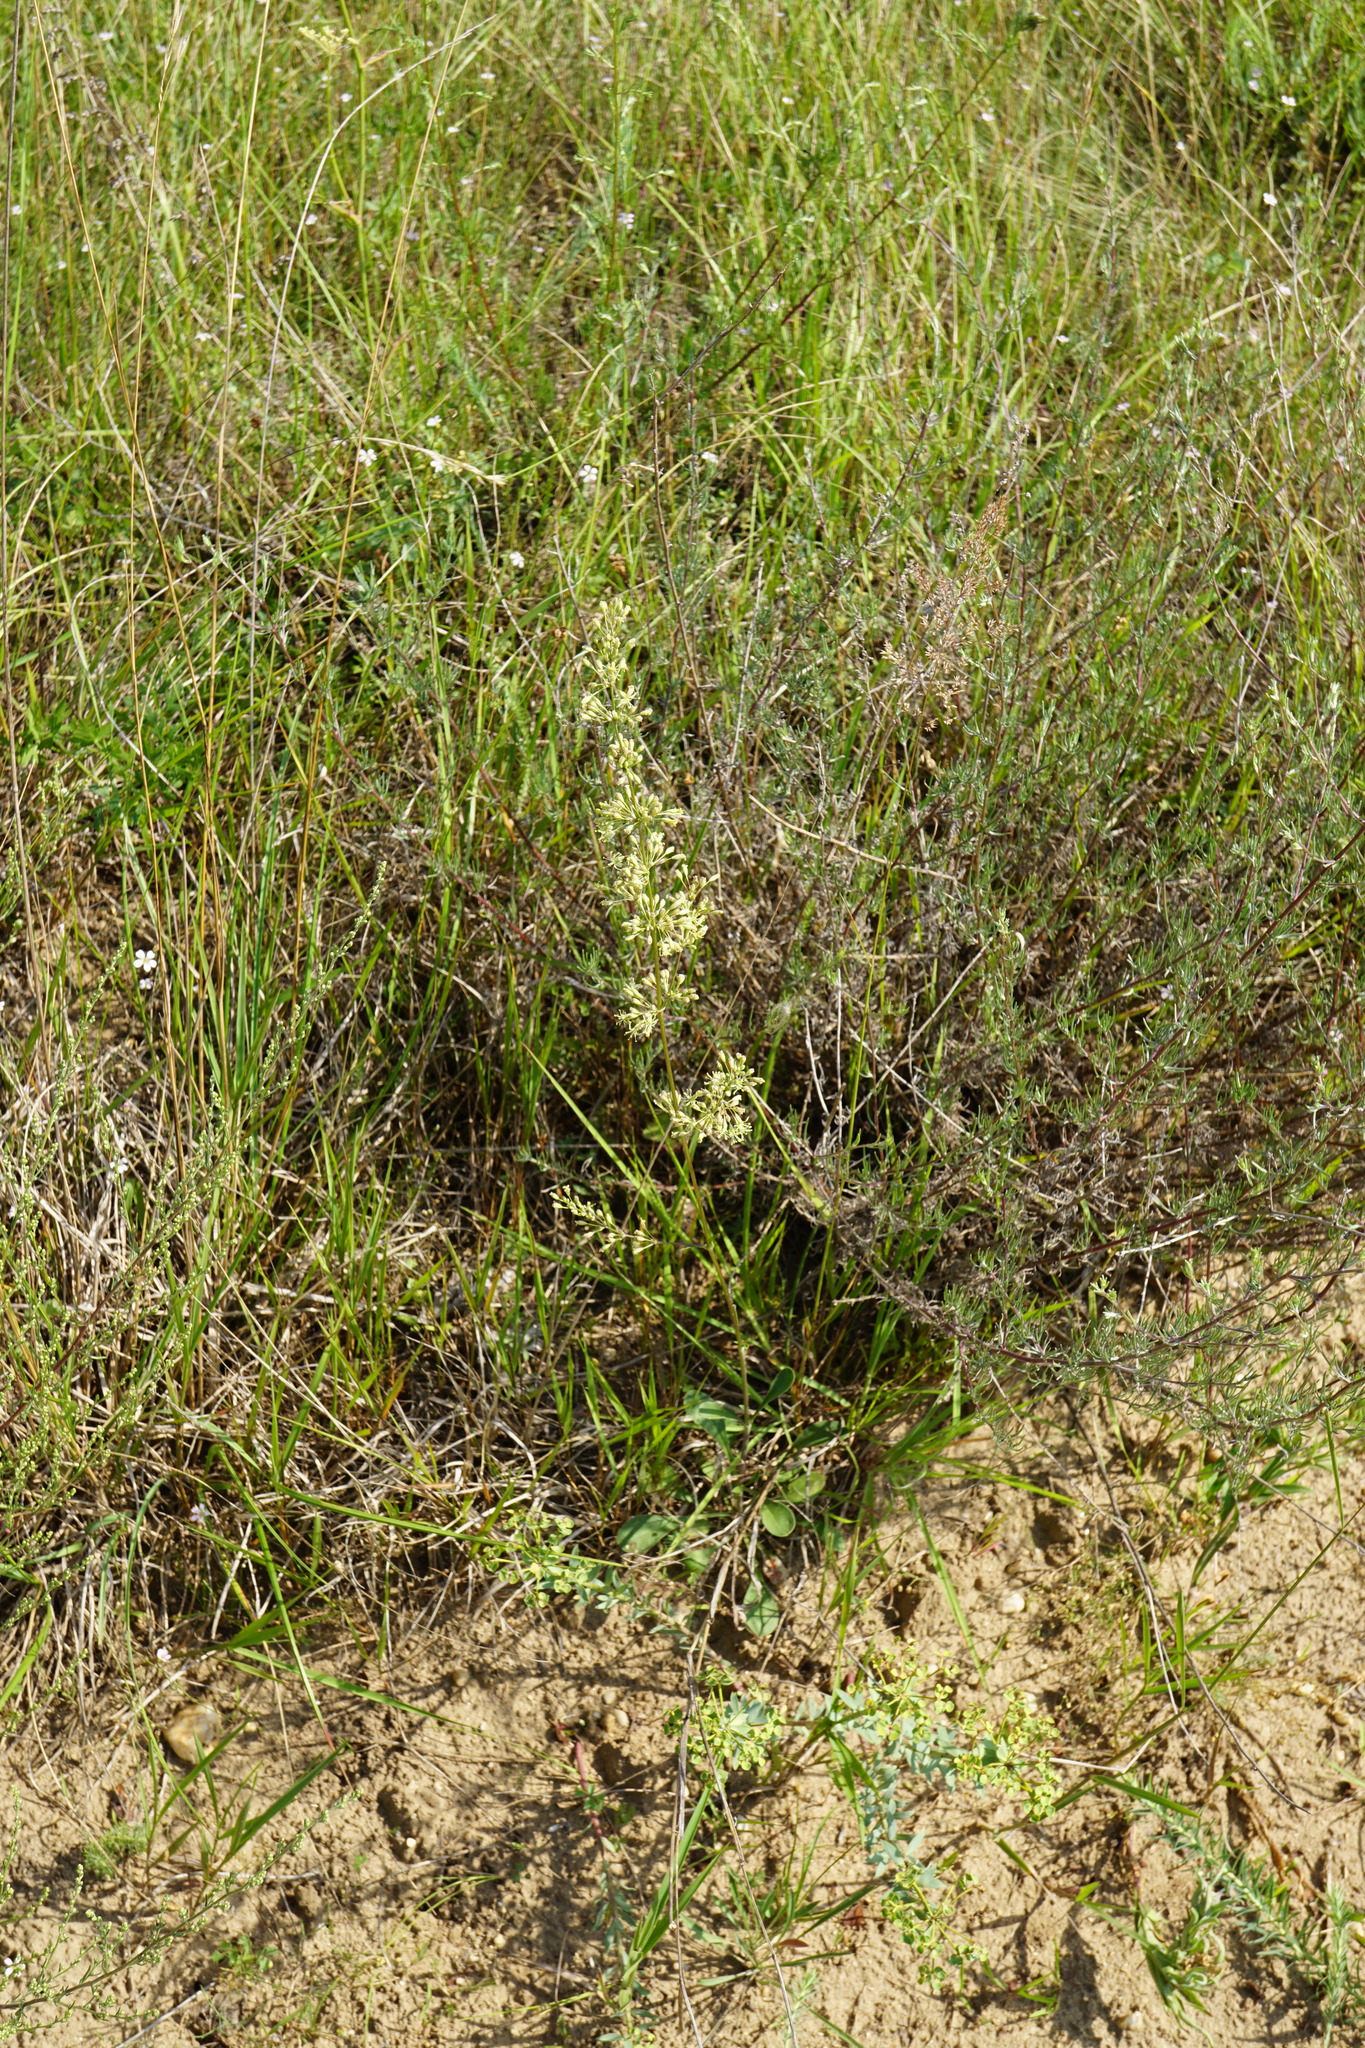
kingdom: Plantae
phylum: Tracheophyta
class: Magnoliopsida
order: Caryophyllales
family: Caryophyllaceae
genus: Silene
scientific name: Silene otites
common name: Spanish catchfly
